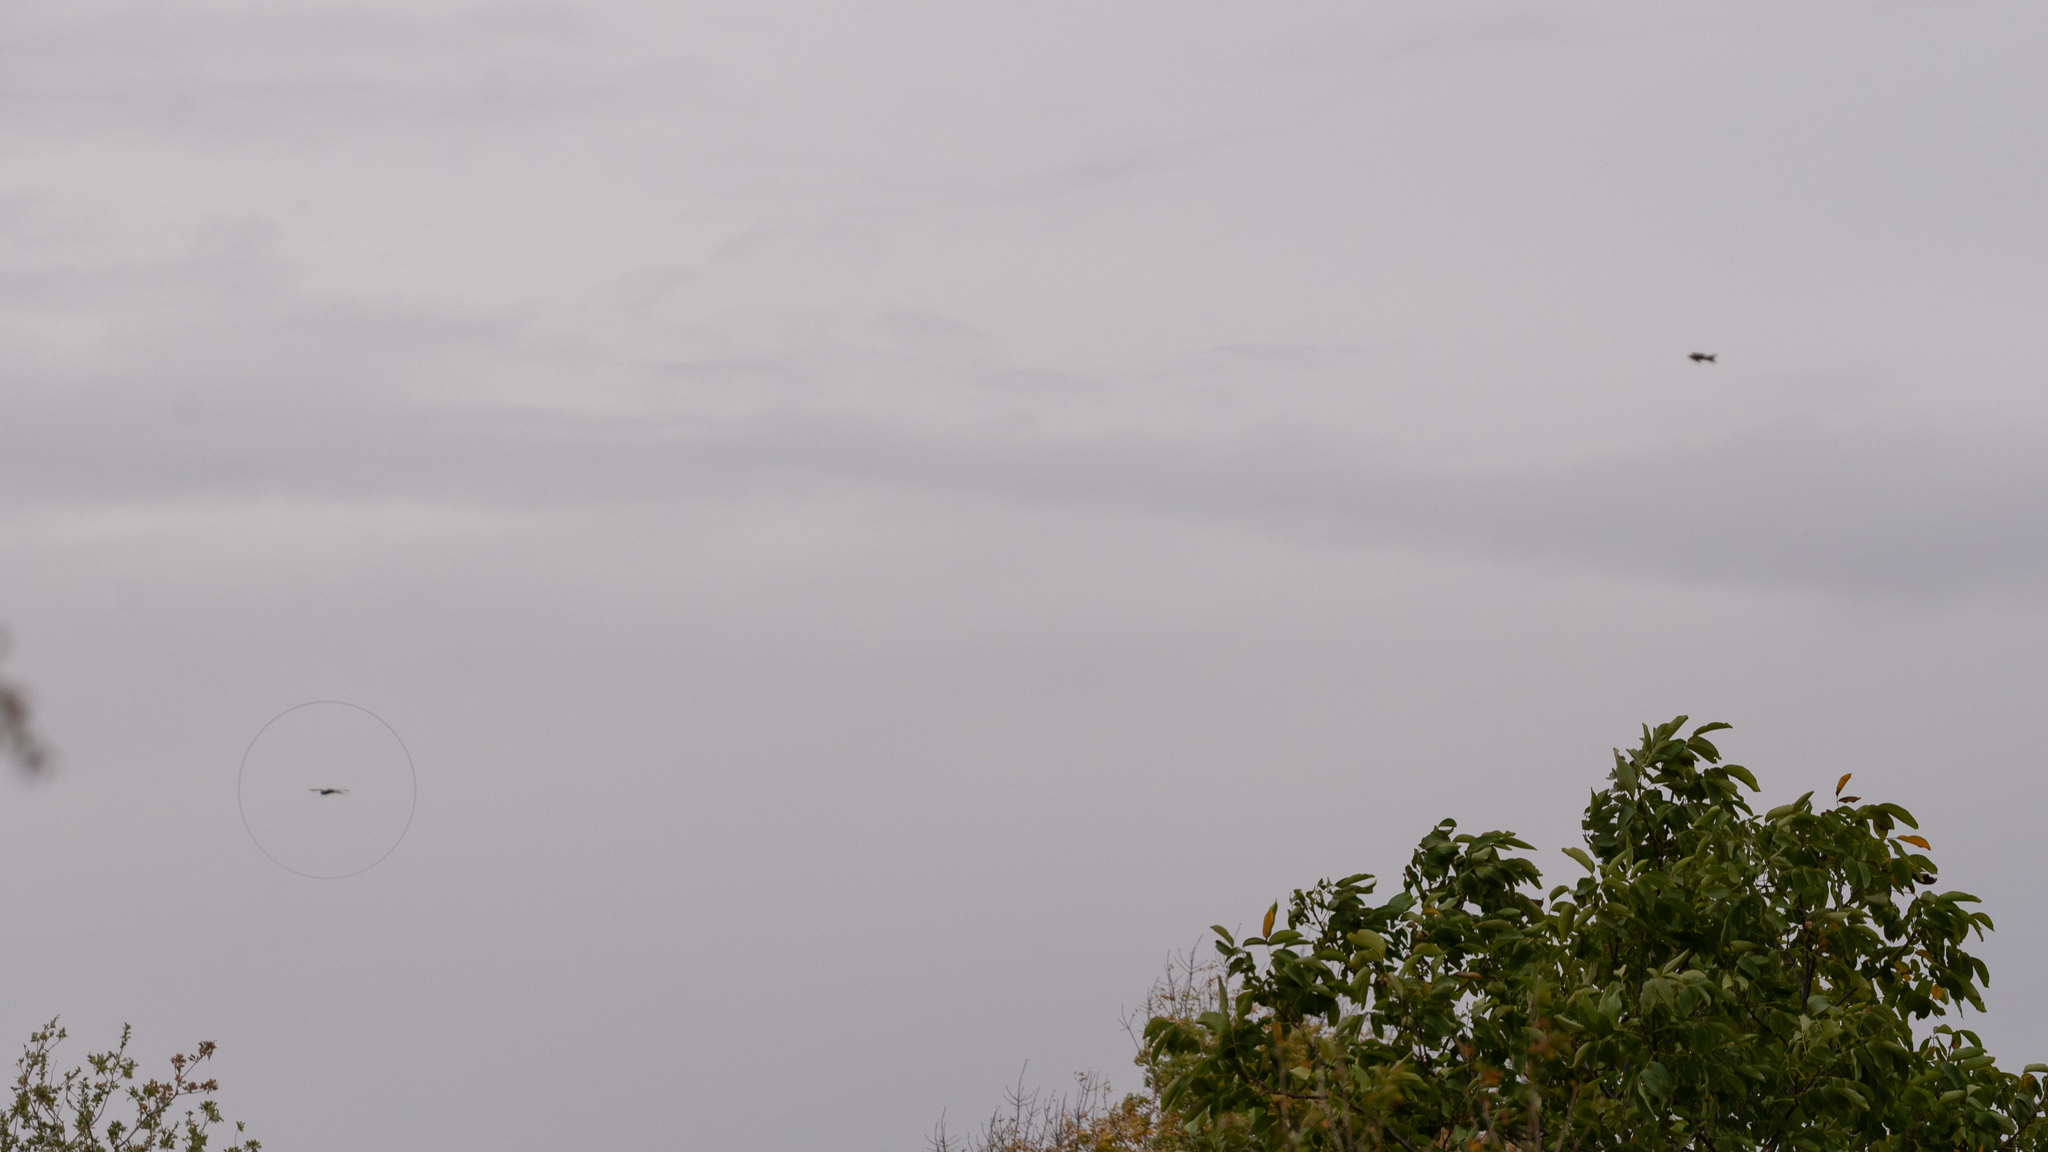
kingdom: Animalia
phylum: Chordata
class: Aves
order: Accipitriformes
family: Accipitridae
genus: Milvus
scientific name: Milvus milvus
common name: Red kite
